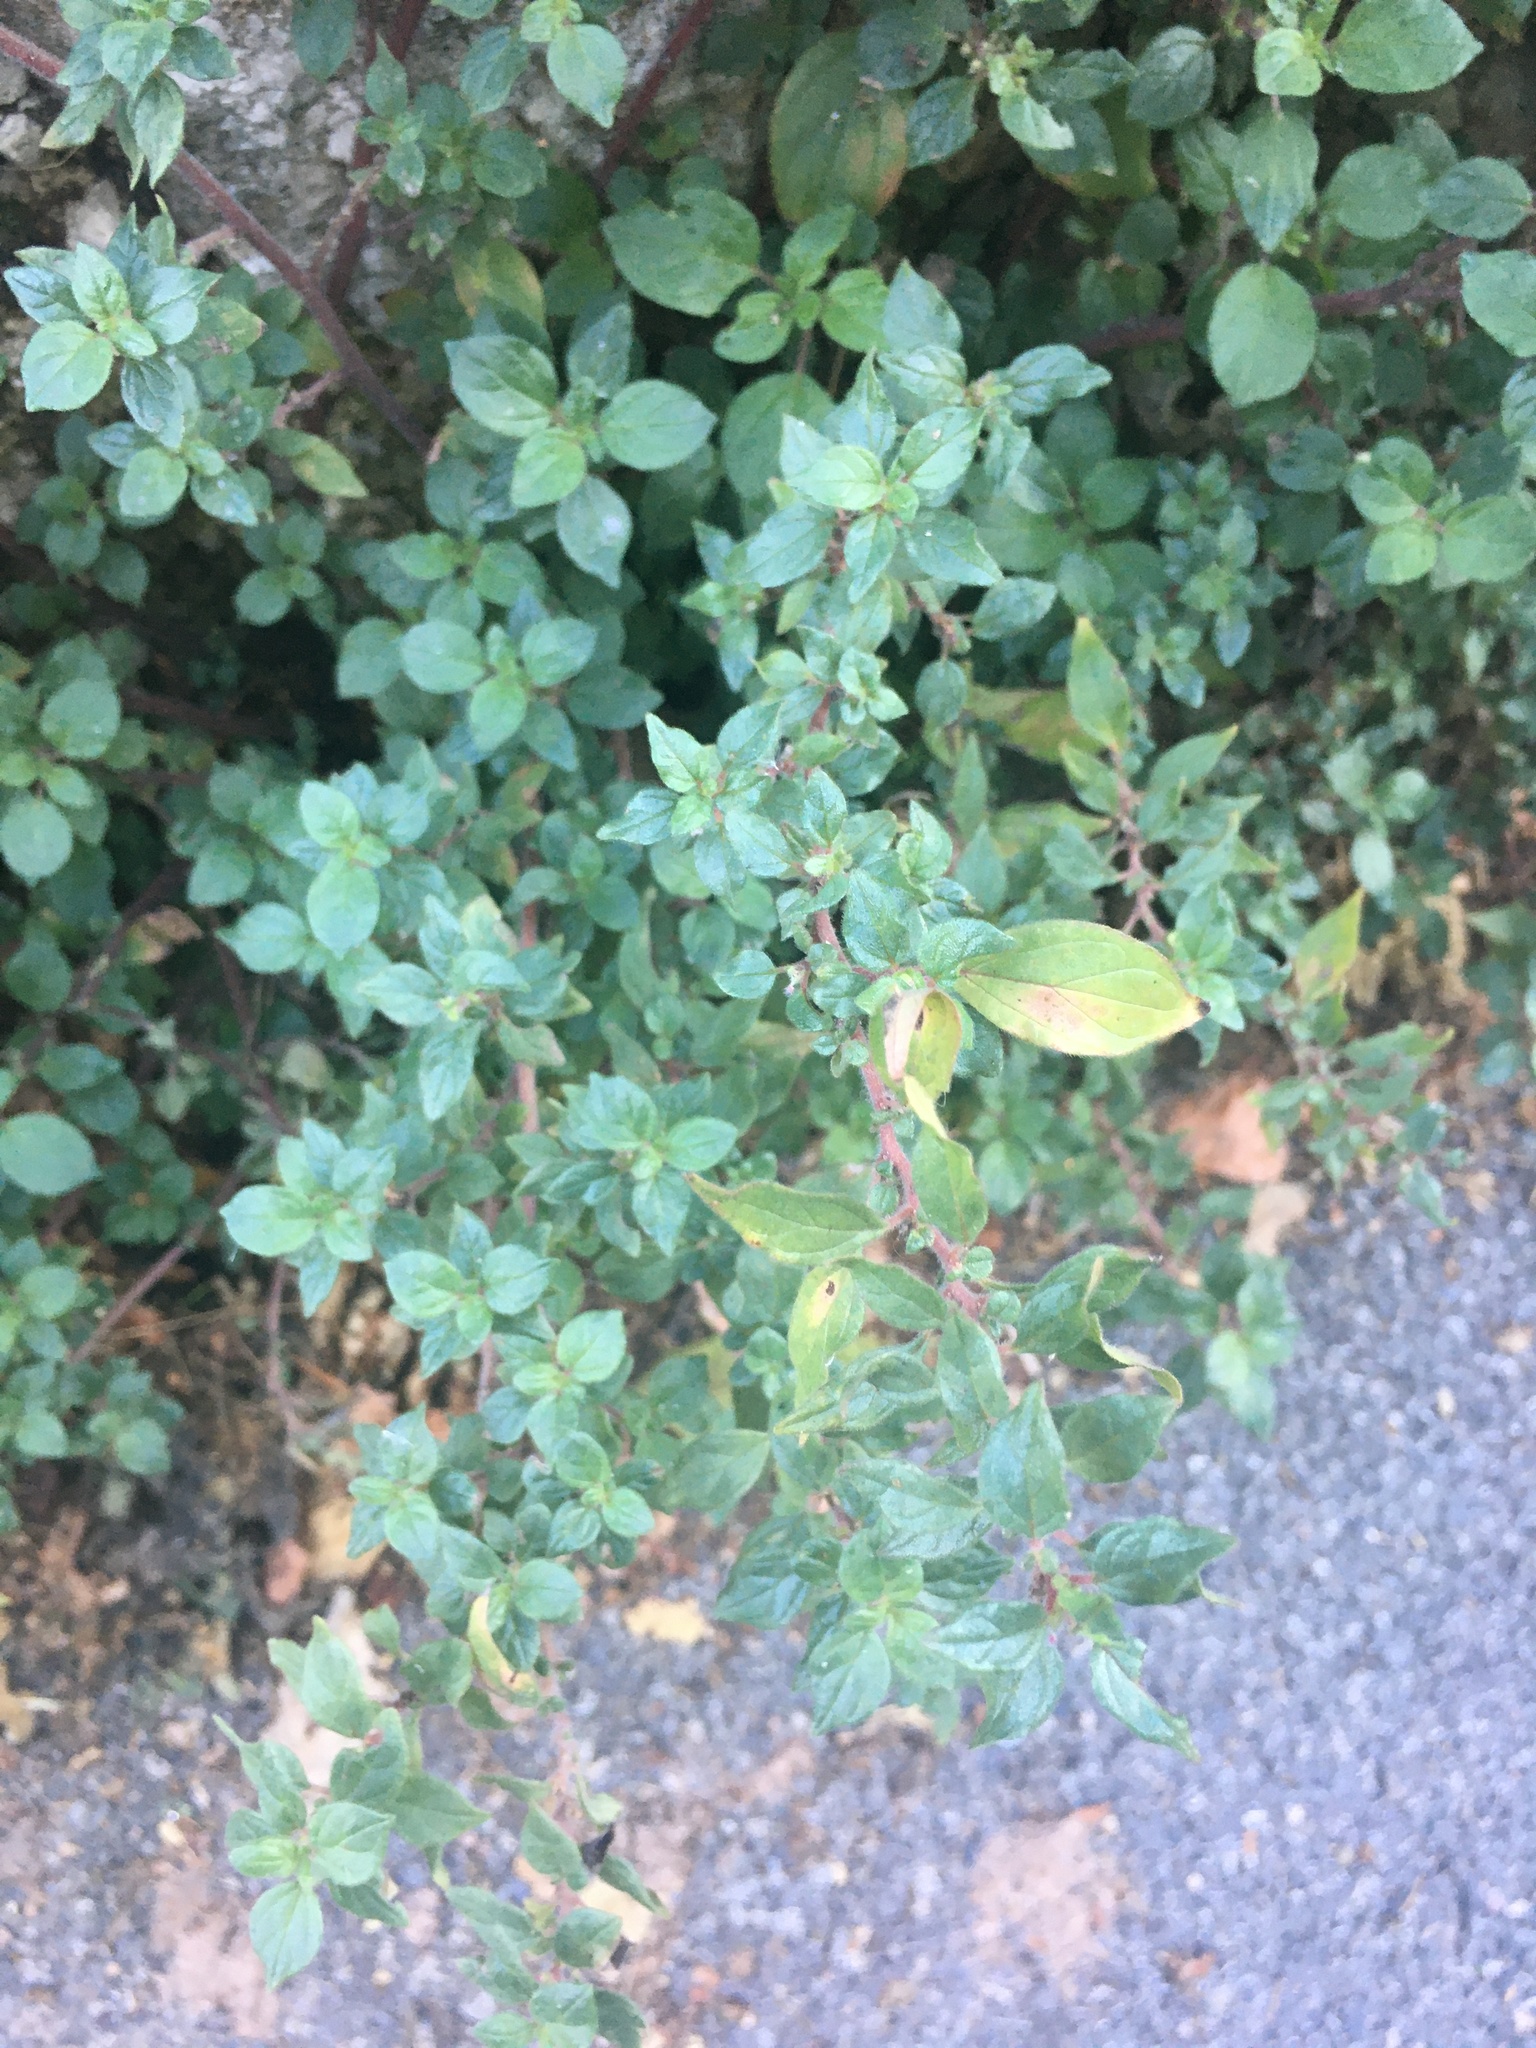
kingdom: Plantae
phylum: Tracheophyta
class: Magnoliopsida
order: Rosales
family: Urticaceae
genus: Parietaria
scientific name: Parietaria judaica
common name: Pellitory-of-the-wall
